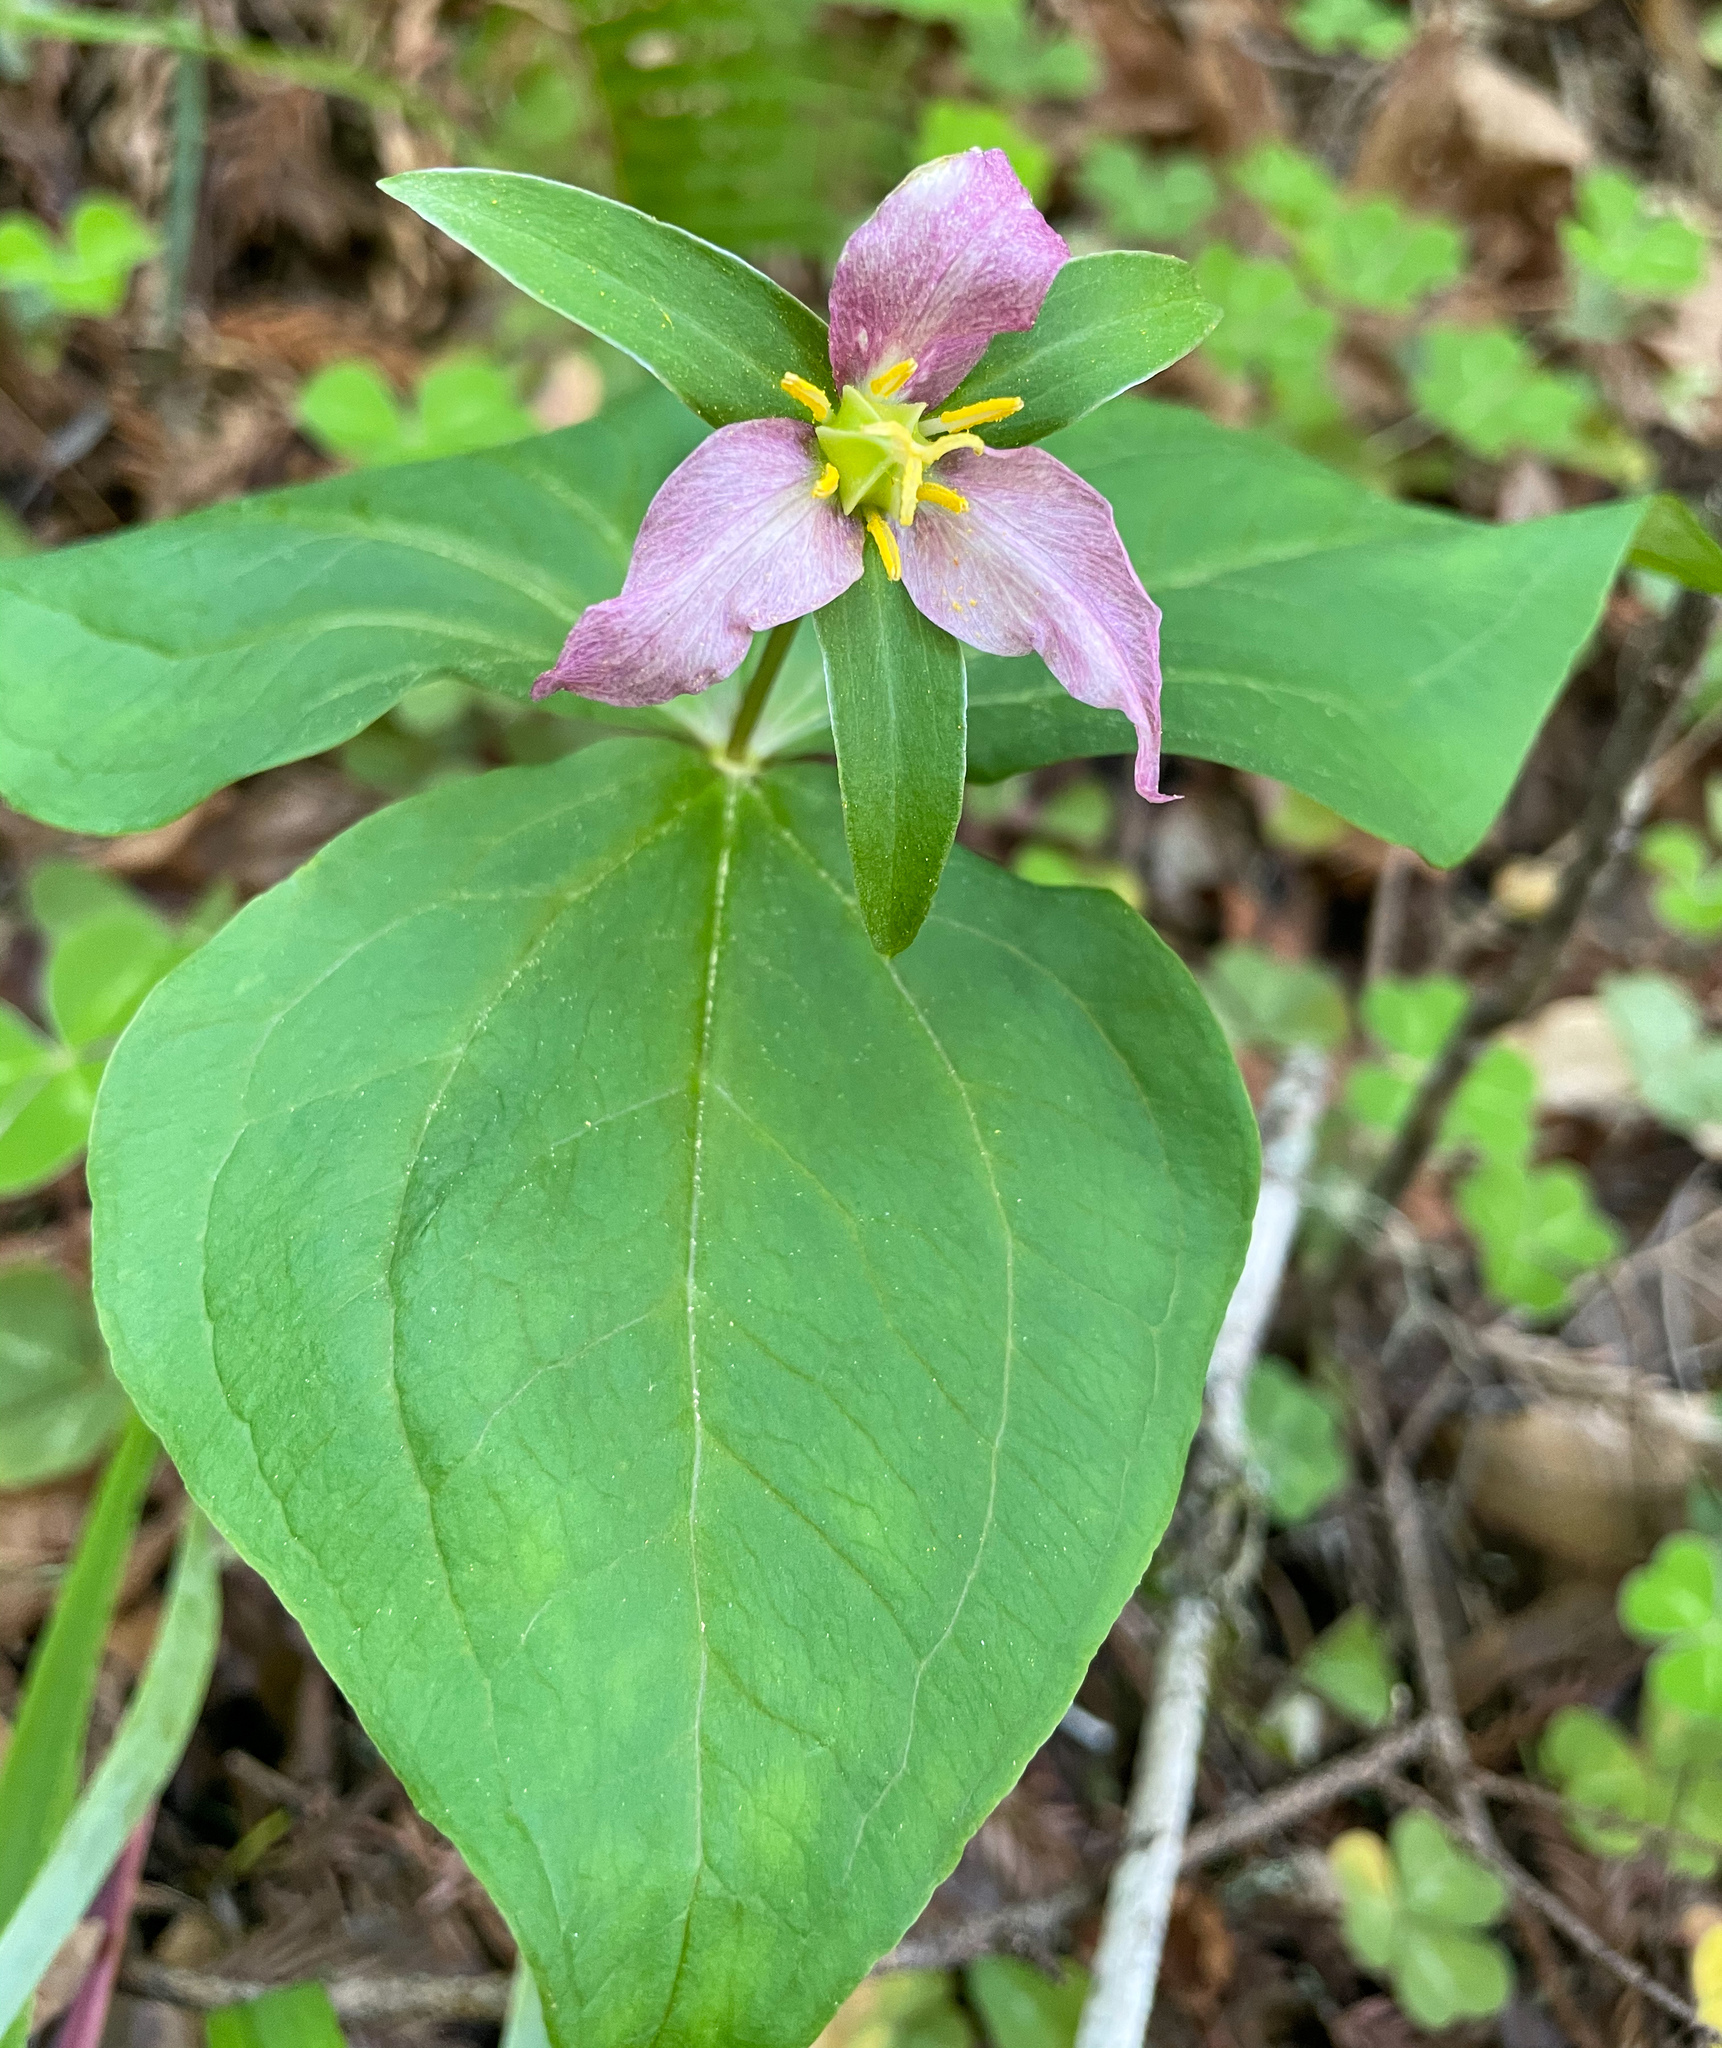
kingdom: Plantae
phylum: Tracheophyta
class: Liliopsida
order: Liliales
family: Melanthiaceae
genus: Trillium
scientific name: Trillium ovatum
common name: Pacific trillium
